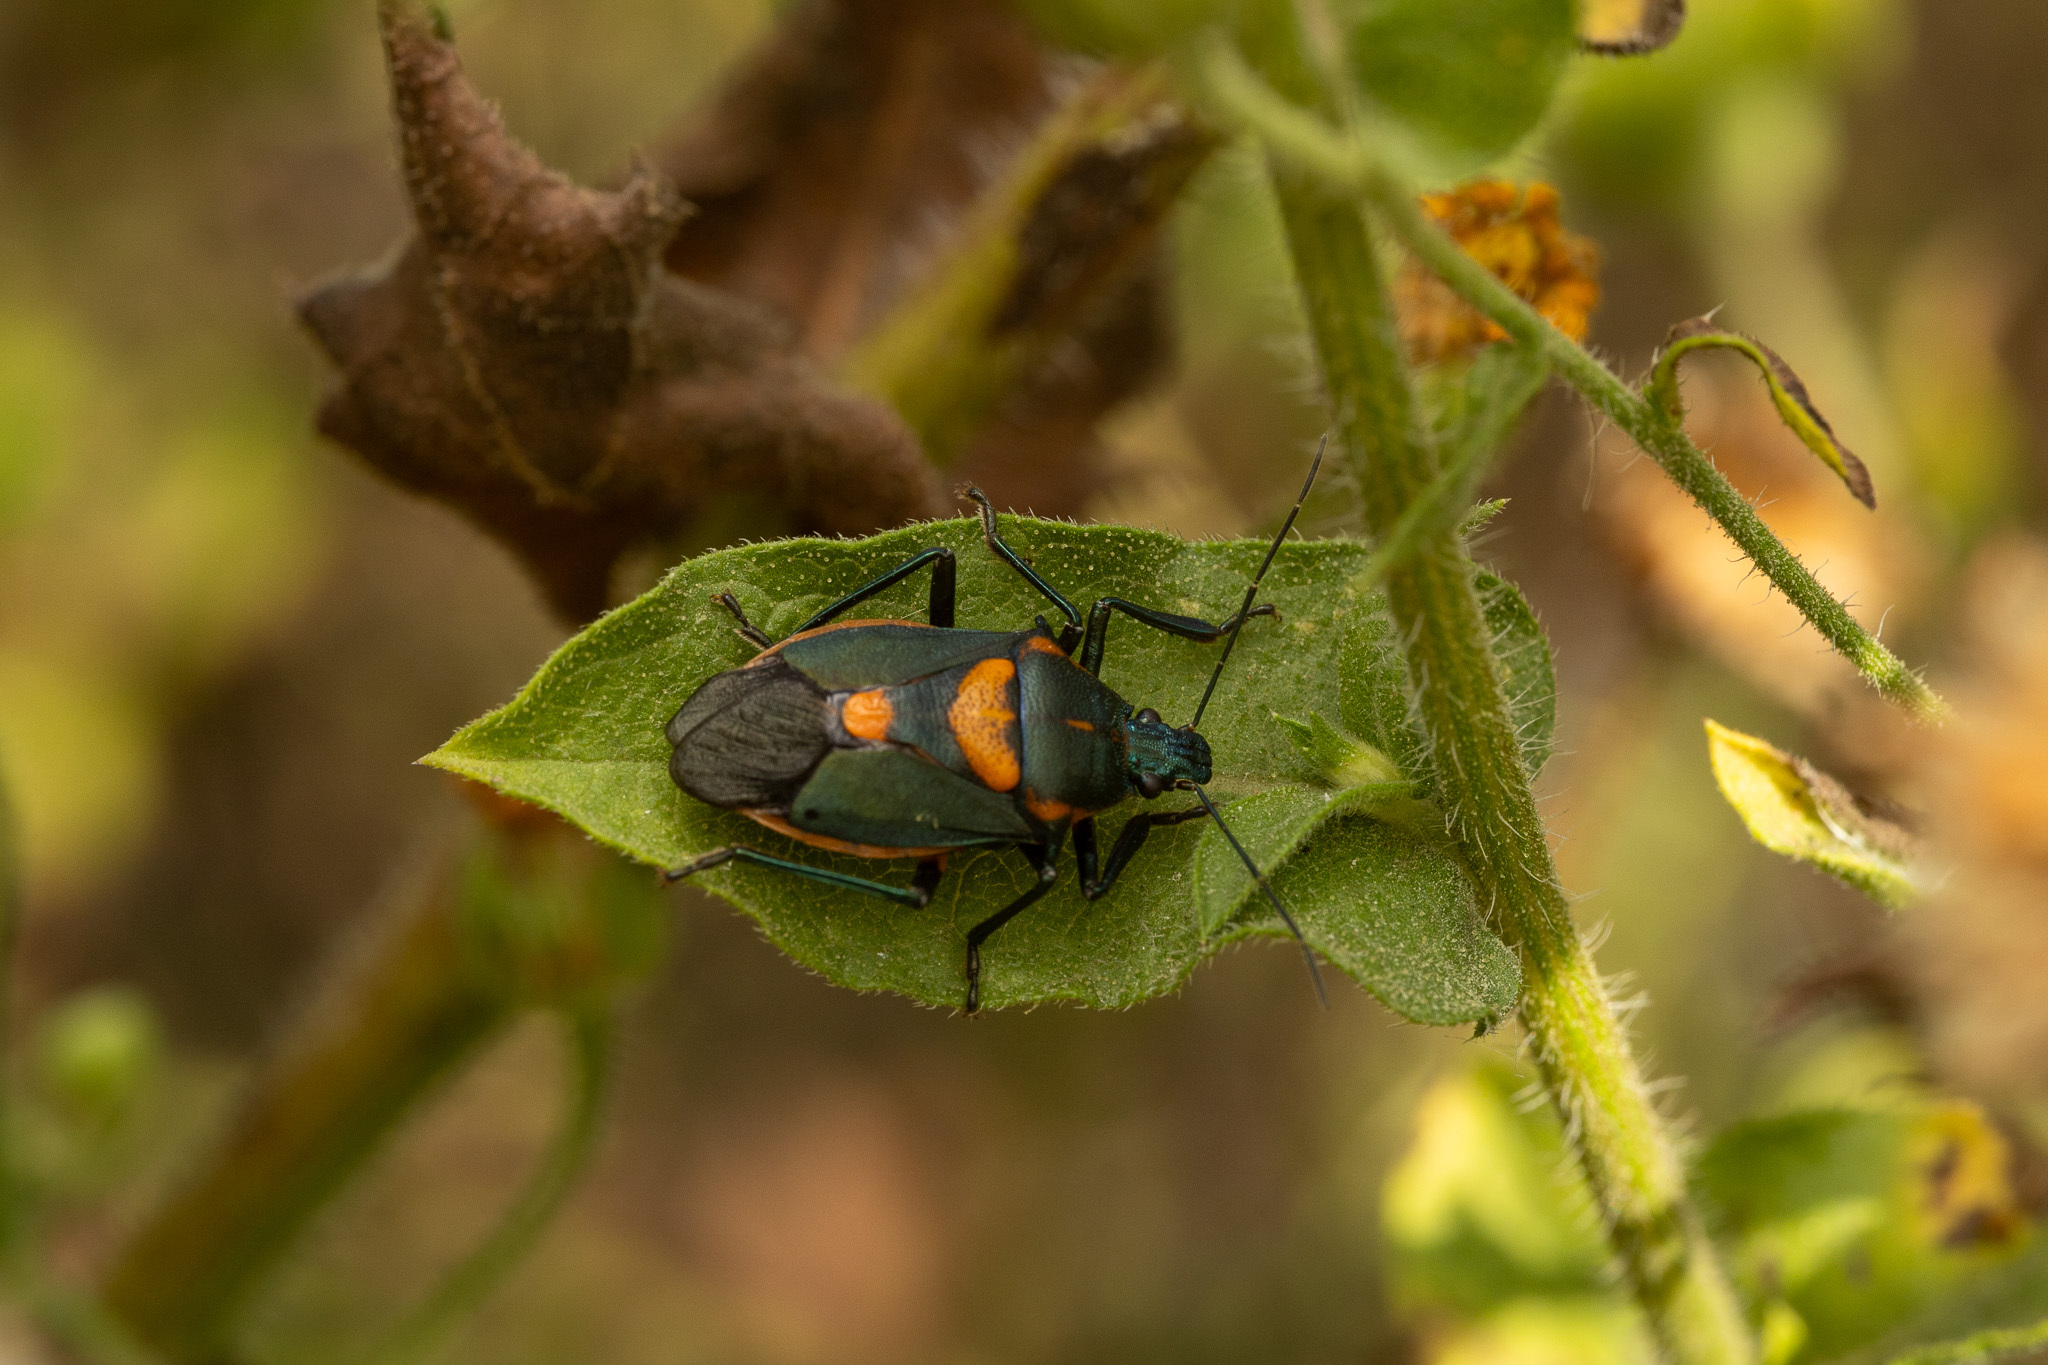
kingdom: Animalia
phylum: Arthropoda
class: Insecta
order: Hemiptera
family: Pentatomidae
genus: Euthyrhynchus
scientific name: Euthyrhynchus floridanus
